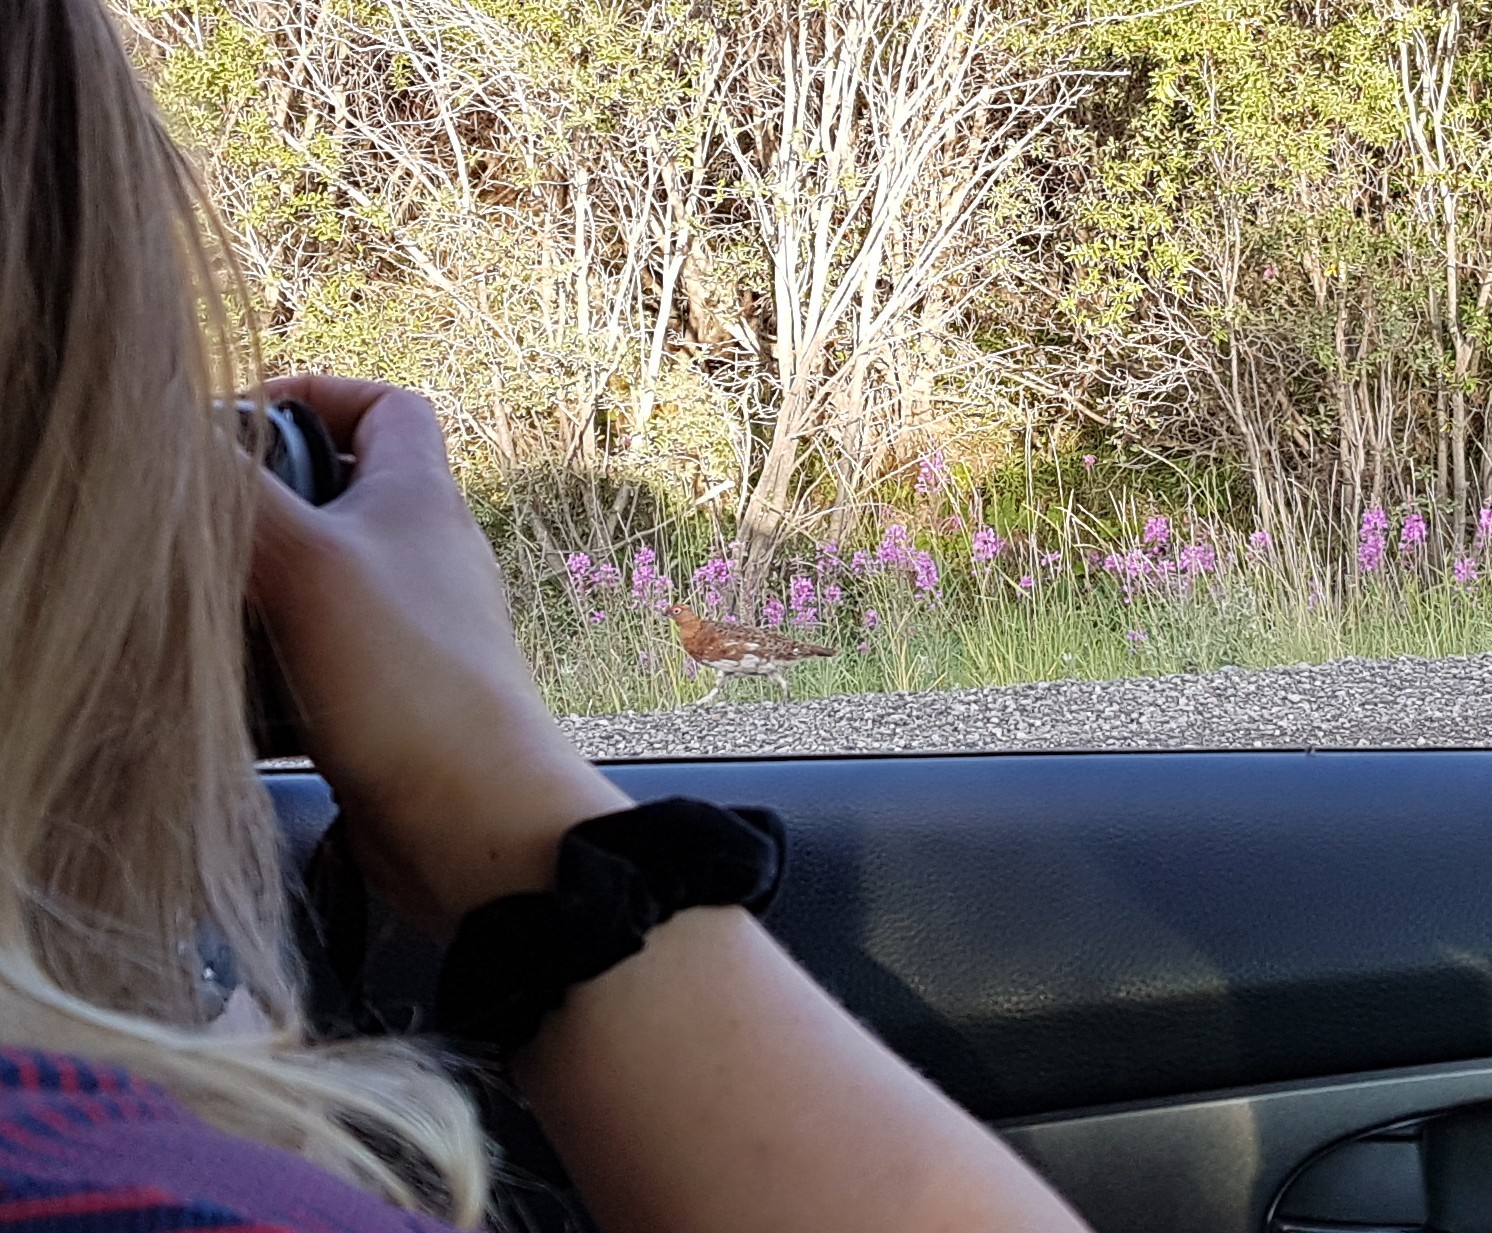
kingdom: Animalia
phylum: Chordata
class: Aves
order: Galliformes
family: Phasianidae
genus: Lagopus
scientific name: Lagopus lagopus
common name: Willow ptarmigan
